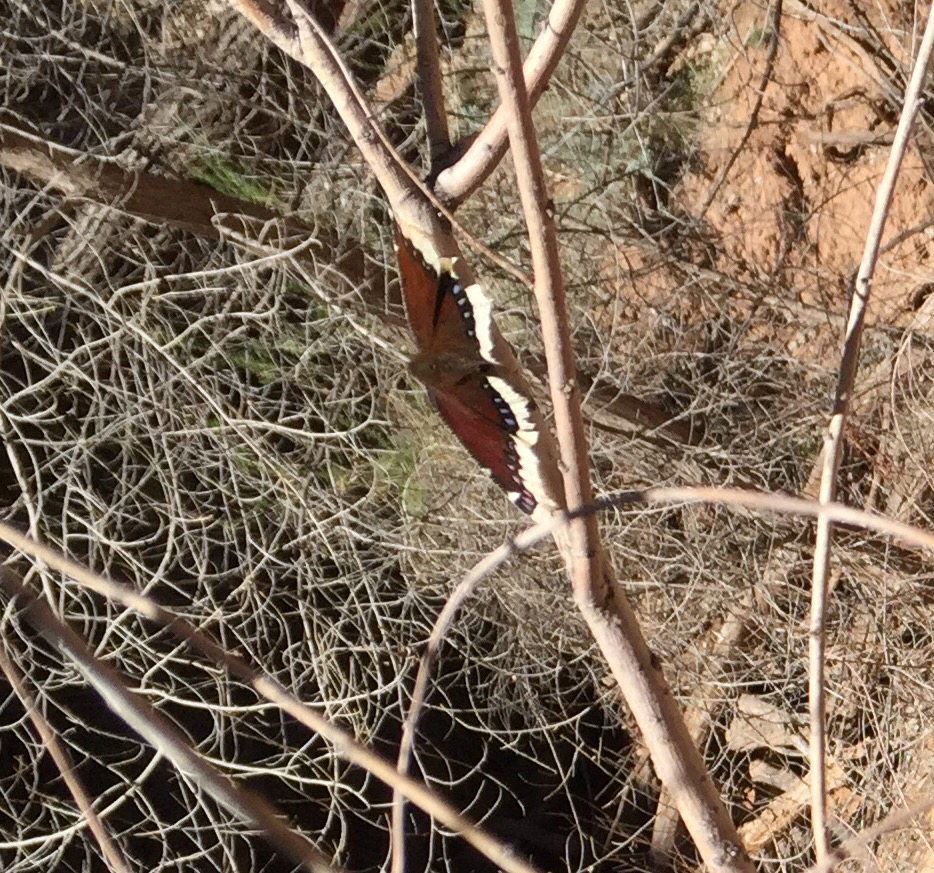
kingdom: Animalia
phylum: Arthropoda
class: Insecta
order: Lepidoptera
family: Nymphalidae
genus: Nymphalis
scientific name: Nymphalis antiopa
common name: Camberwell beauty
